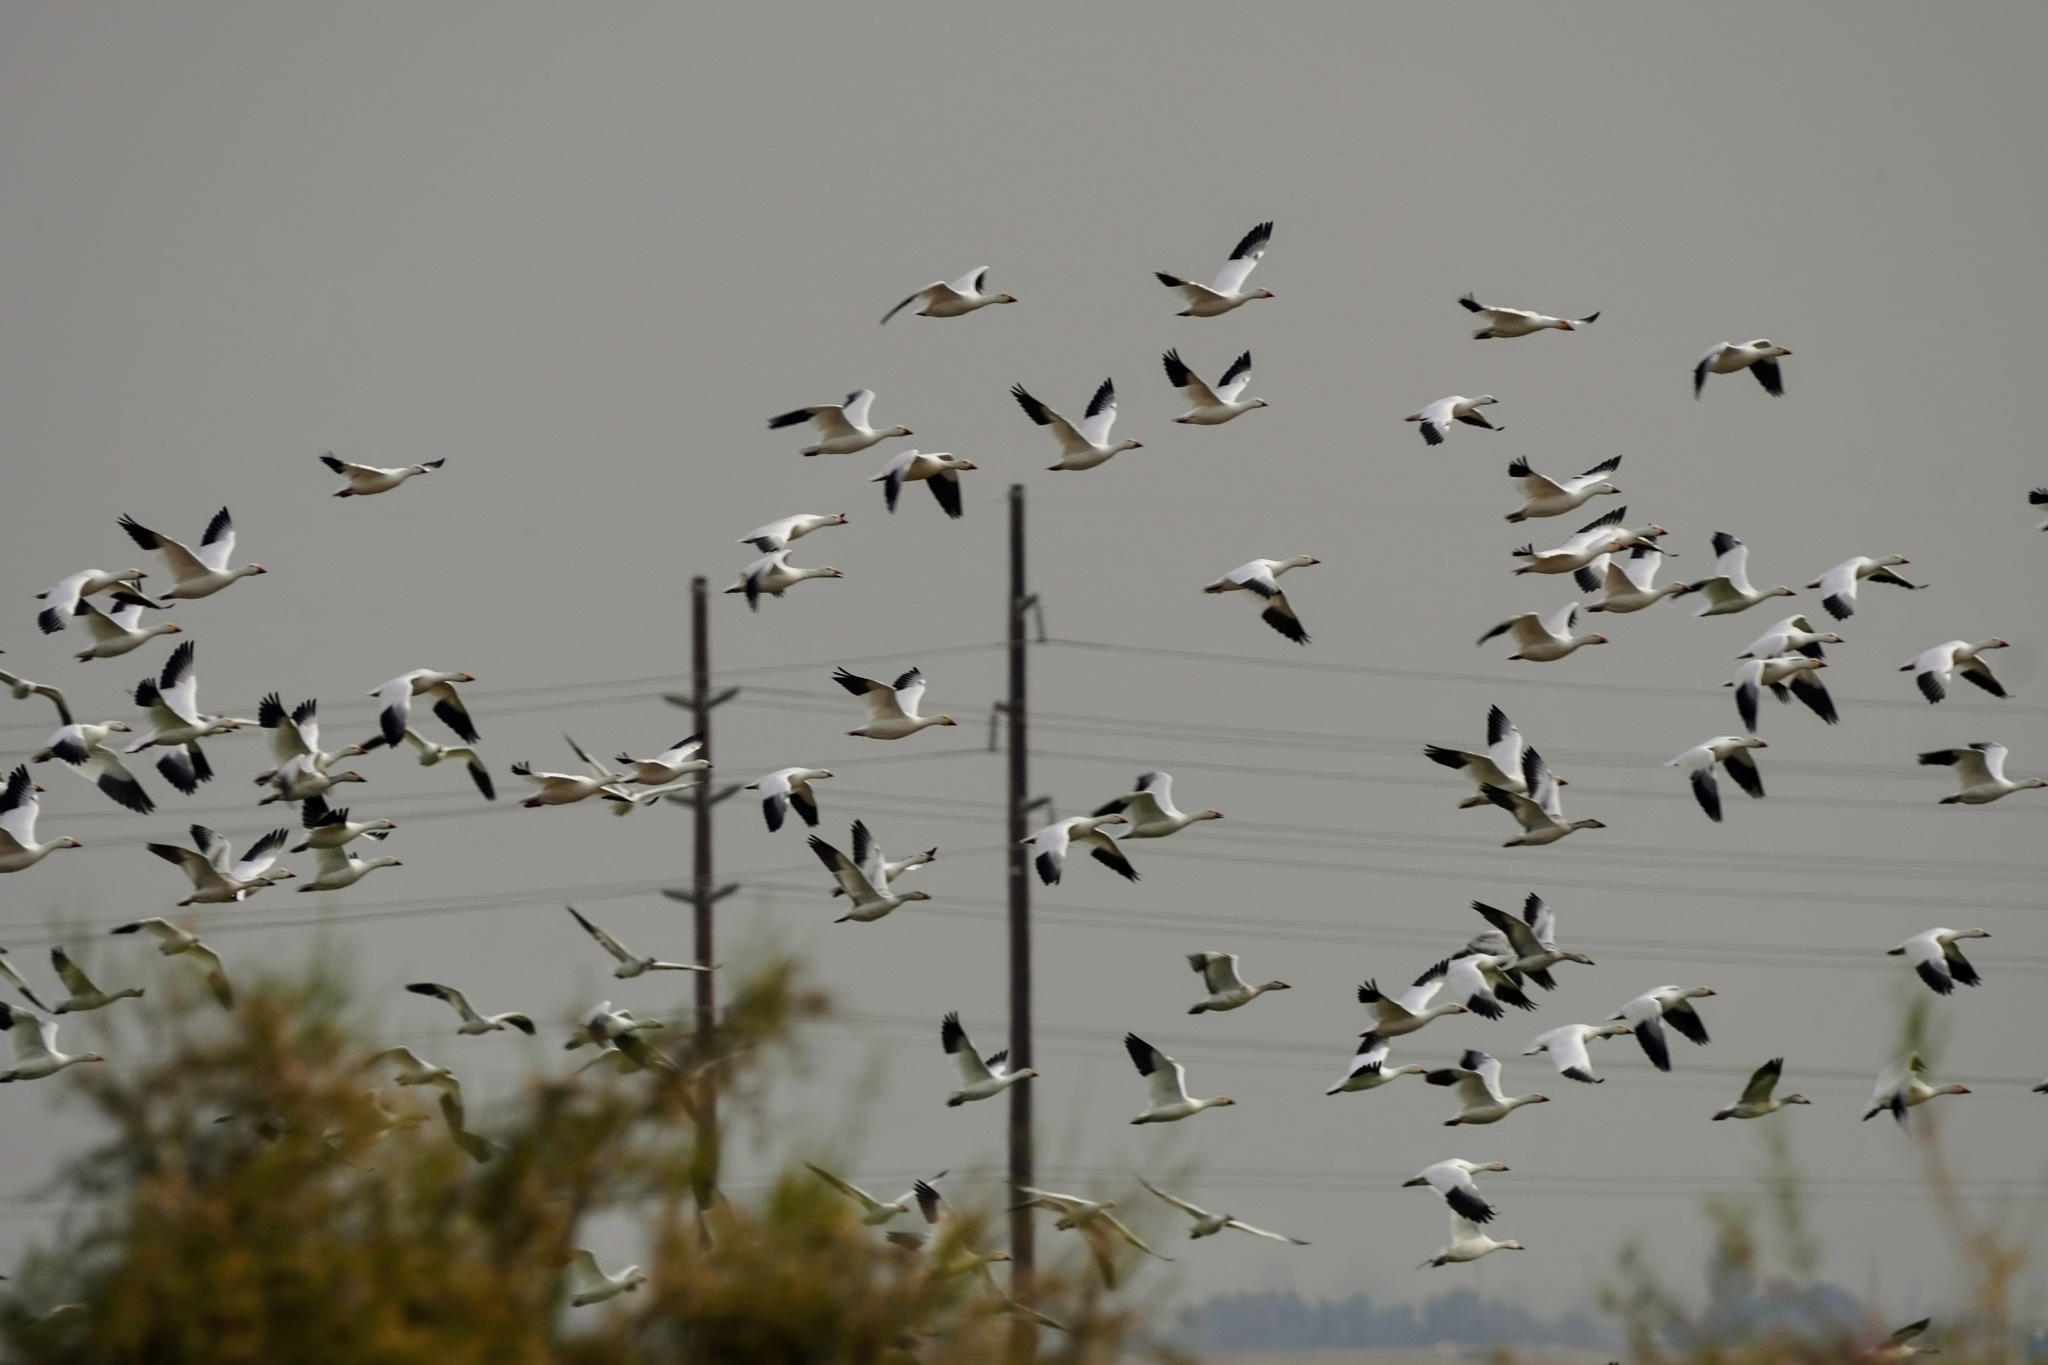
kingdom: Animalia
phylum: Chordata
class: Aves
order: Anseriformes
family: Anatidae
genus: Anser
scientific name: Anser caerulescens
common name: Snow goose
